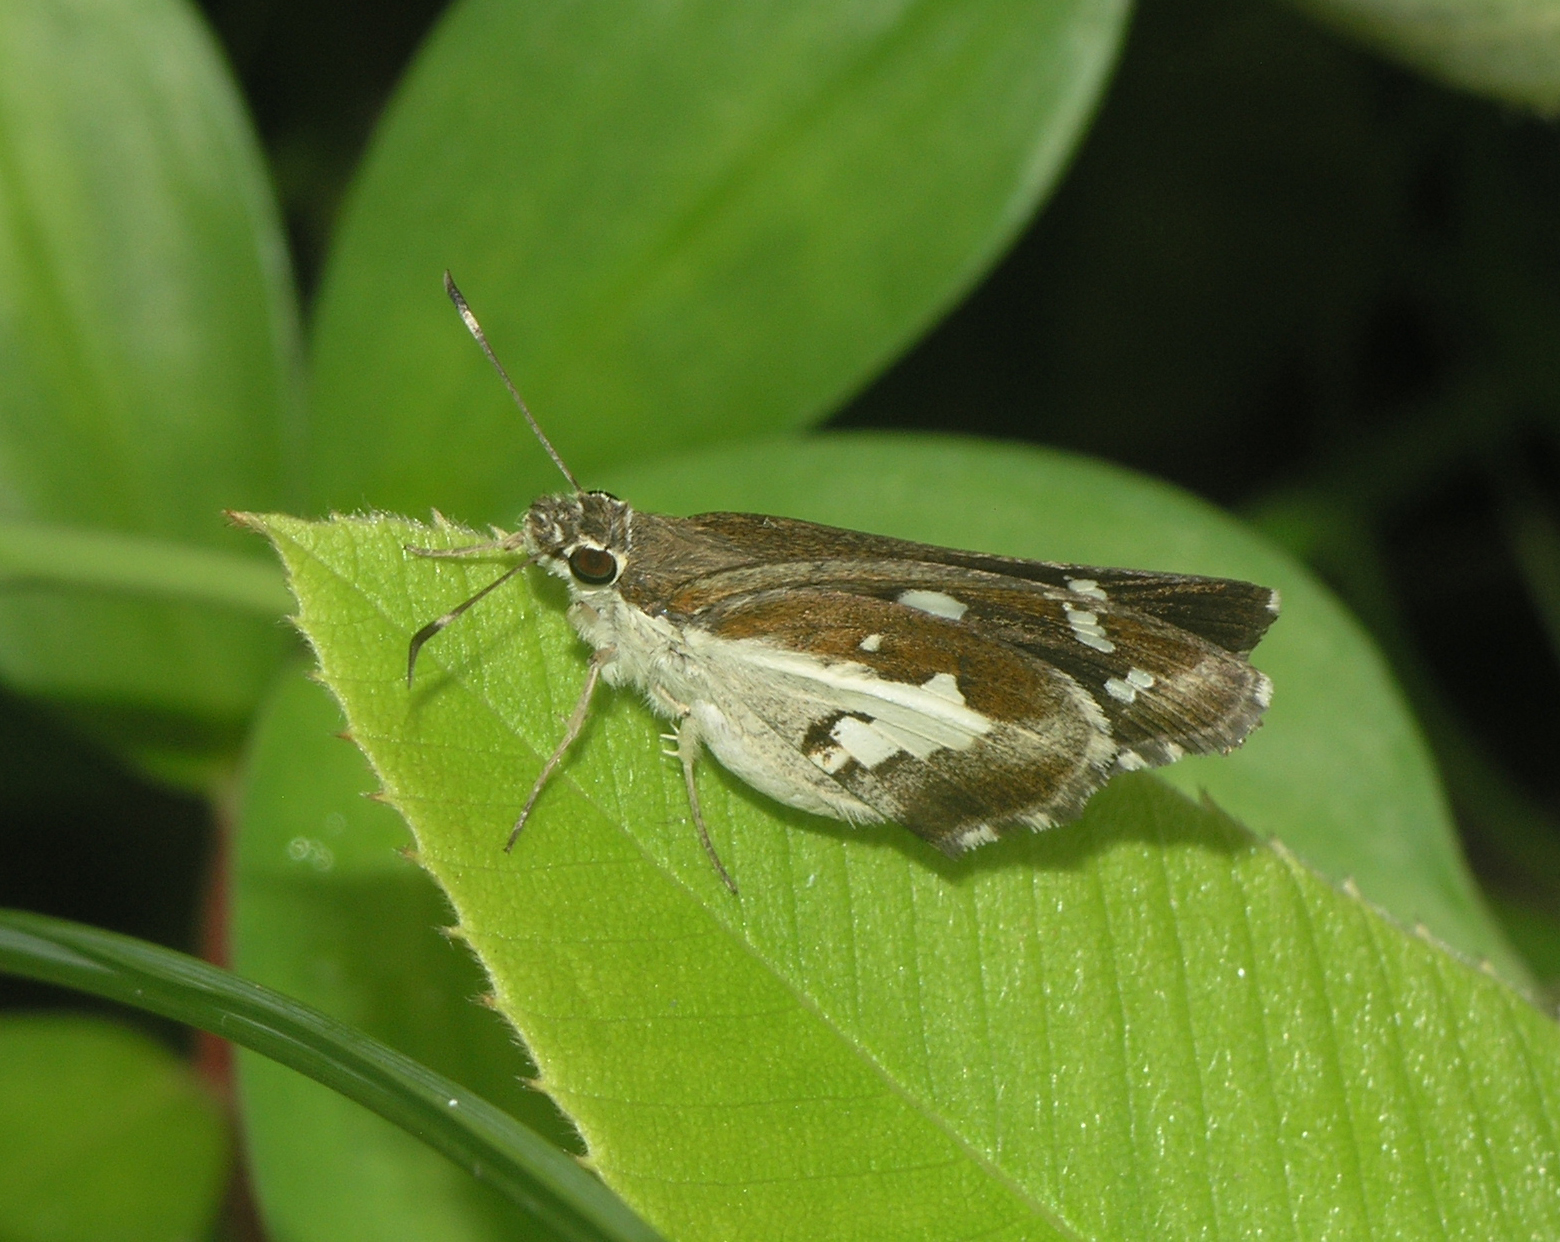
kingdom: Animalia
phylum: Arthropoda
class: Insecta
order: Lepidoptera
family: Hesperiidae
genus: Udaspes
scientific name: Udaspes folus
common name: Grass demon
